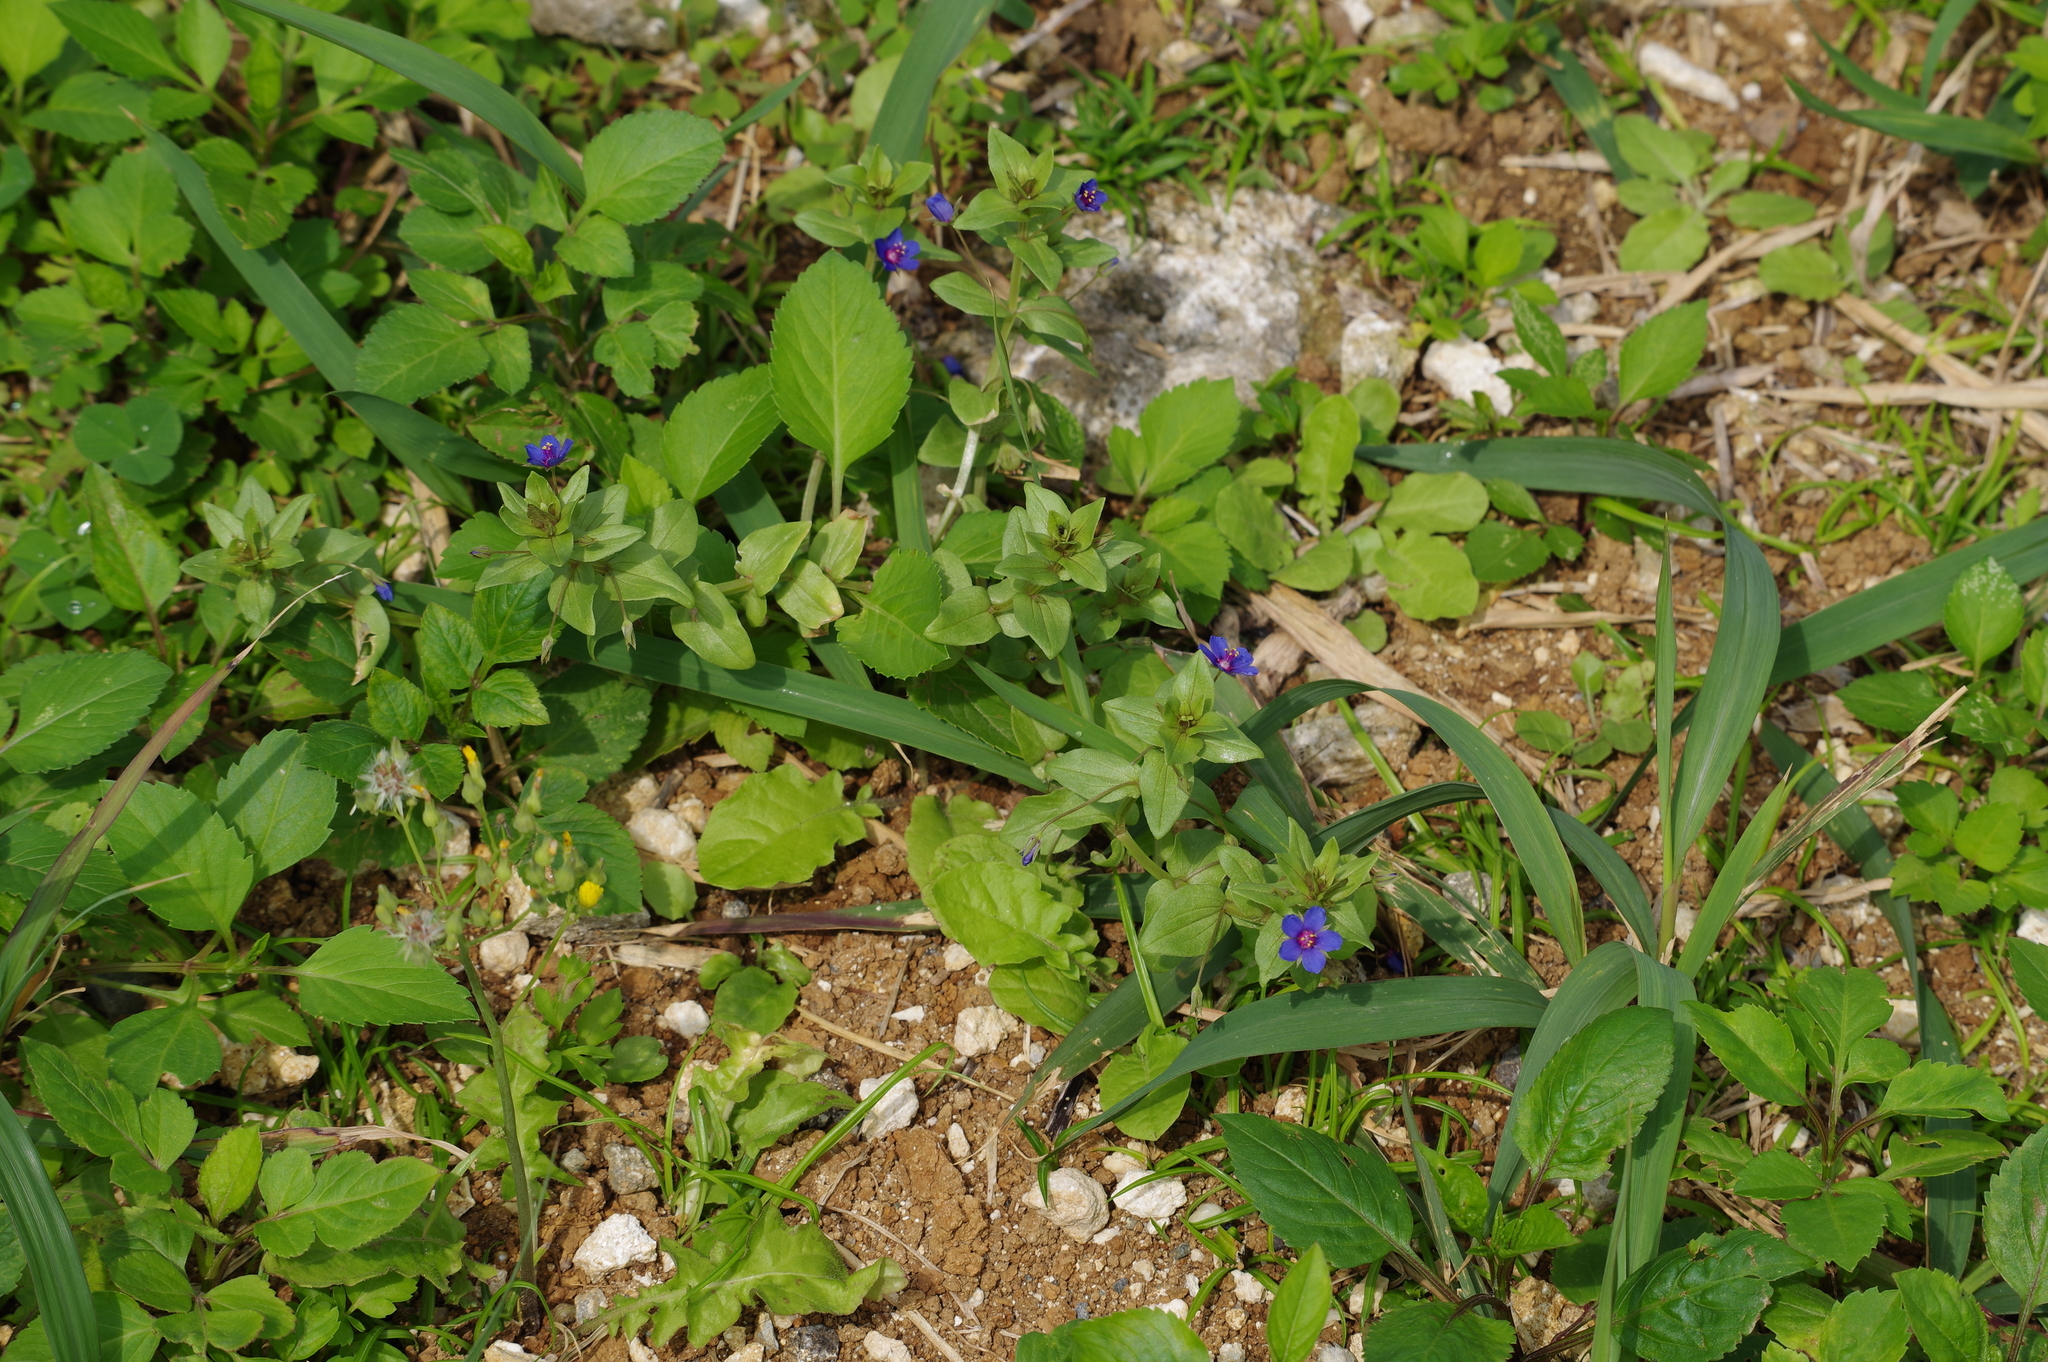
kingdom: Plantae
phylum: Tracheophyta
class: Magnoliopsida
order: Ericales
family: Primulaceae
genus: Lysimachia
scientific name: Lysimachia foemina
